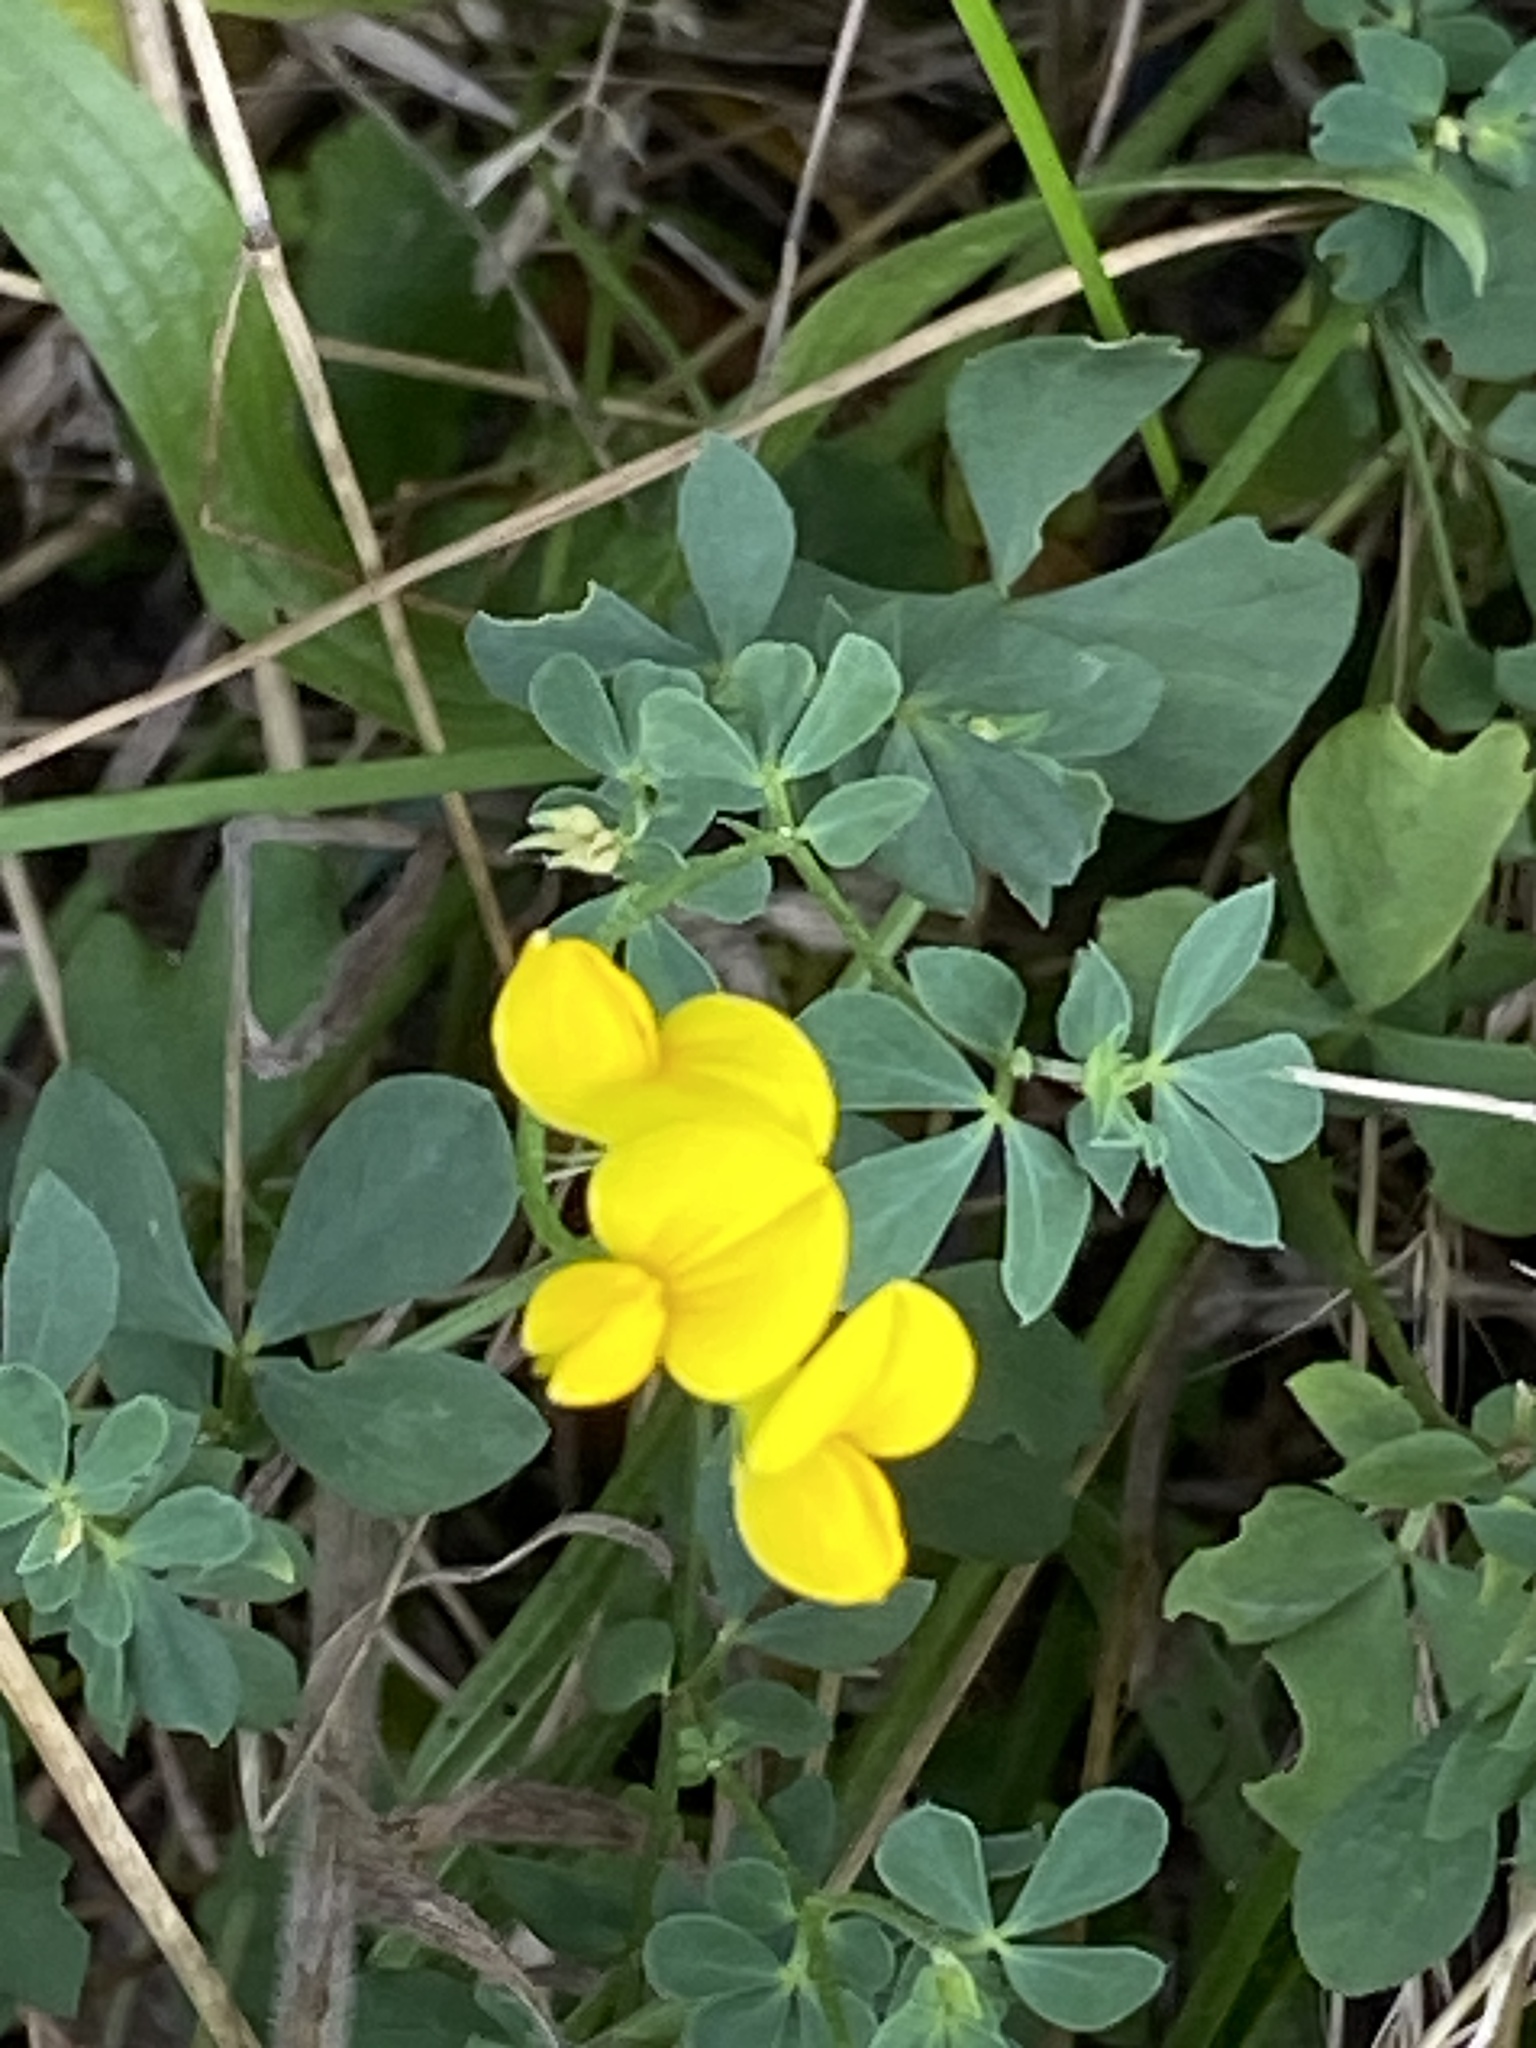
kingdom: Plantae
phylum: Tracheophyta
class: Magnoliopsida
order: Fabales
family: Fabaceae
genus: Lotus
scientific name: Lotus corniculatus
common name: Common bird's-foot-trefoil
